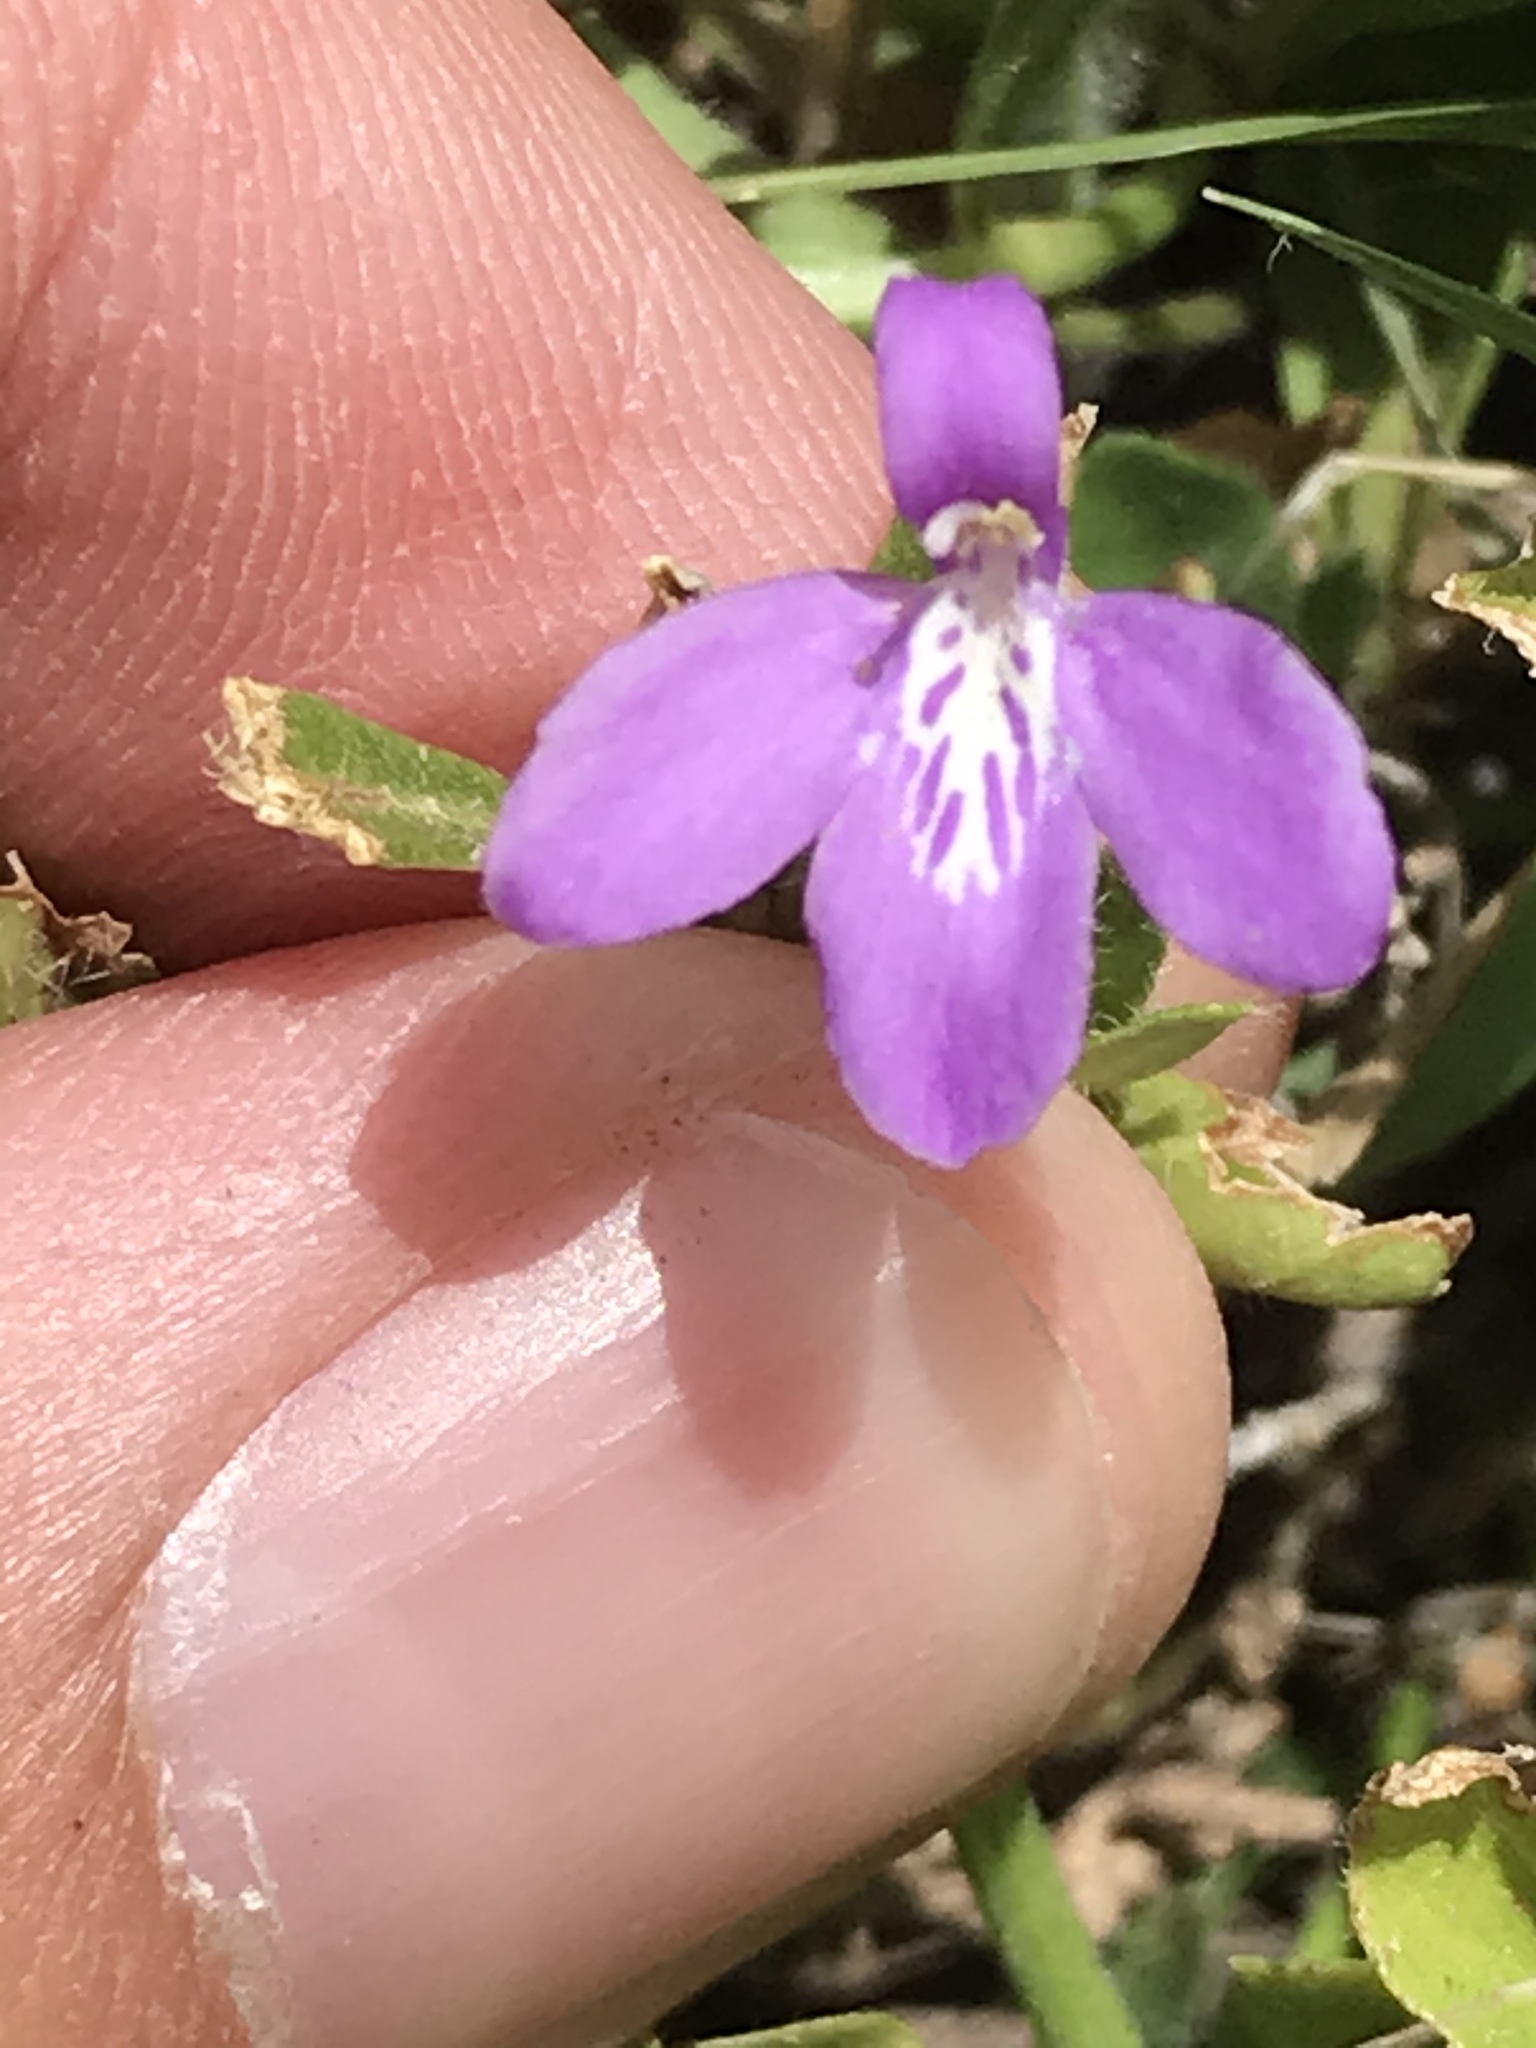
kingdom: Plantae
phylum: Tracheophyta
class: Magnoliopsida
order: Lamiales
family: Acanthaceae
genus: Justicia
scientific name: Justicia pilosella
